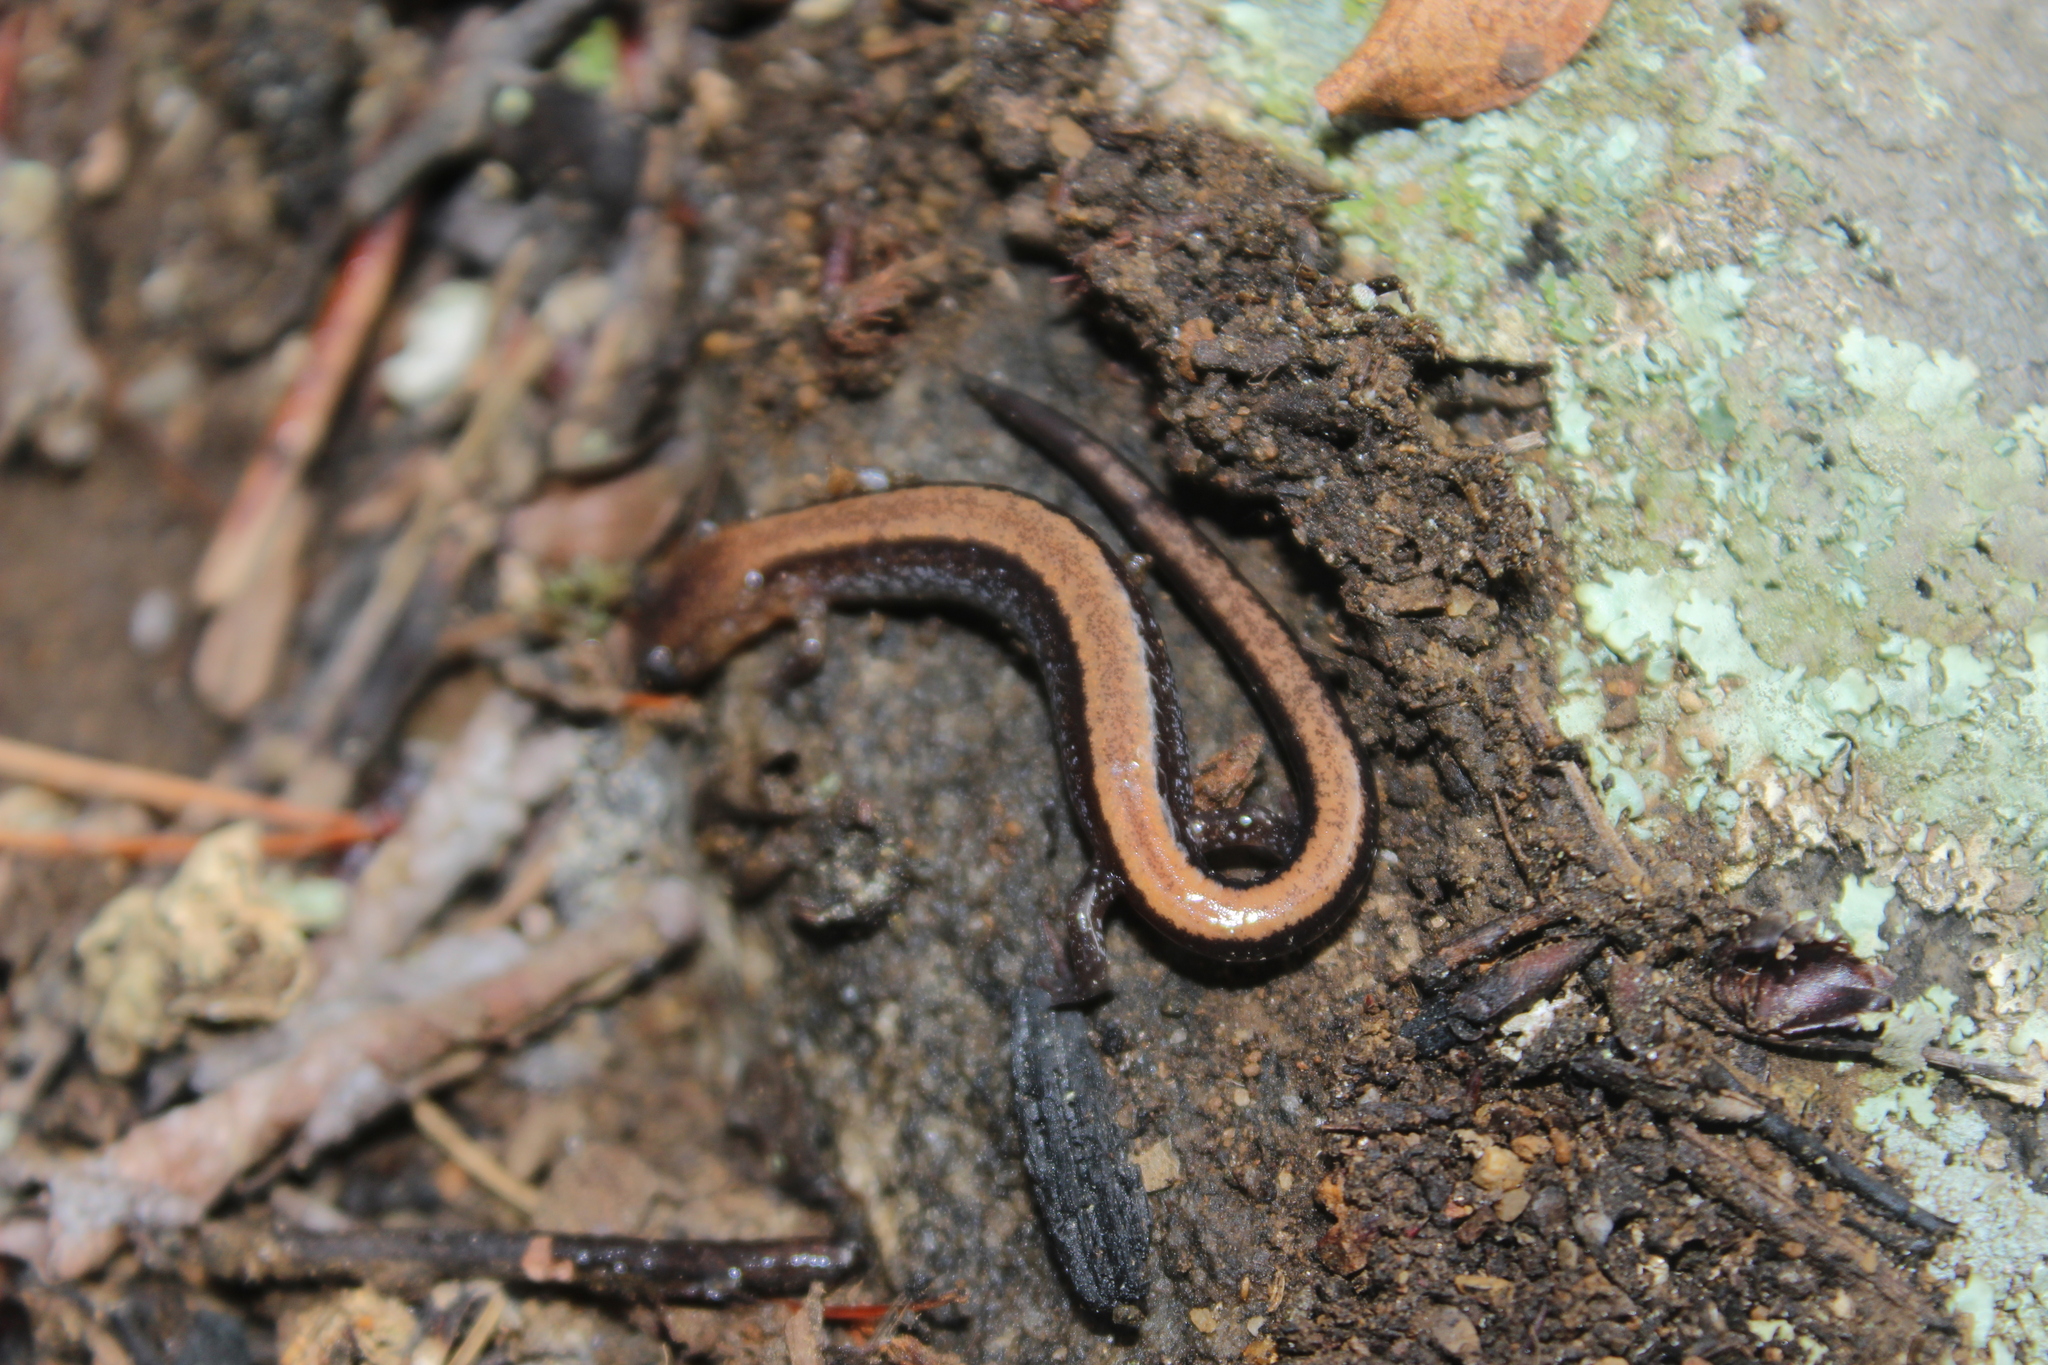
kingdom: Animalia
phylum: Chordata
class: Amphibia
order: Caudata
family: Plethodontidae
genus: Plethodon
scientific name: Plethodon cinereus
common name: Redback salamander
